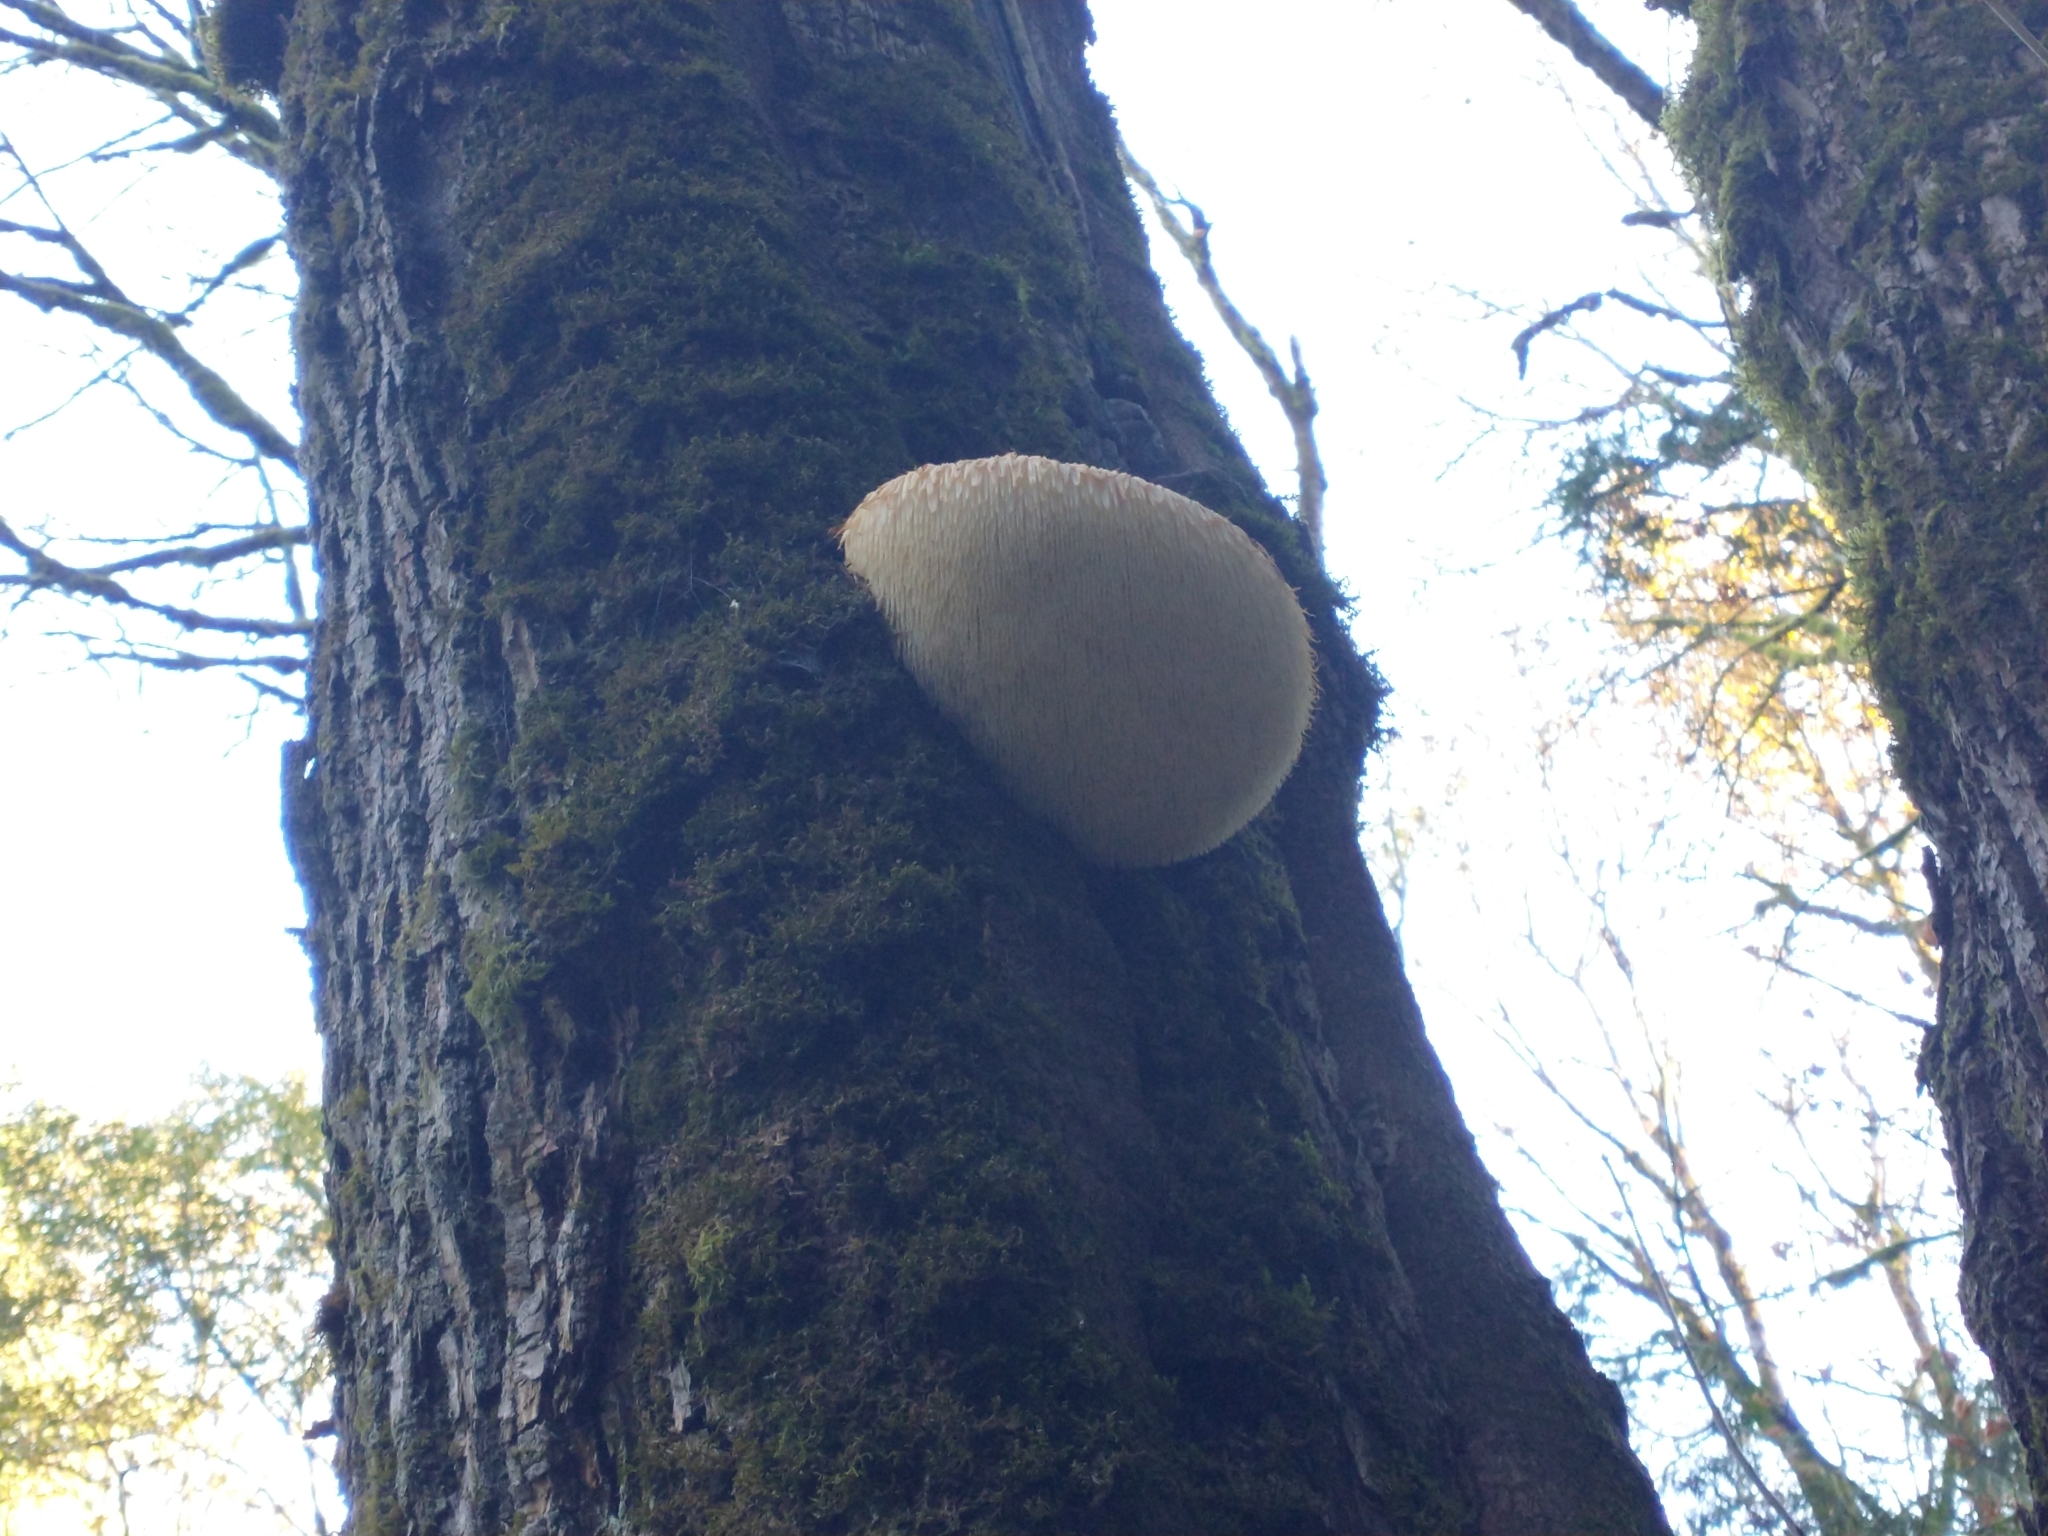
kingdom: Fungi
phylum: Basidiomycota
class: Agaricomycetes
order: Russulales
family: Hericiaceae
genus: Hericium
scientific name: Hericium erinaceus
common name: Bearded tooth
